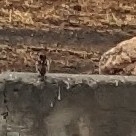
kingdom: Animalia
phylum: Chordata
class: Aves
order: Passeriformes
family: Passeridae
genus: Passer
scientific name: Passer domesticus
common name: House sparrow
